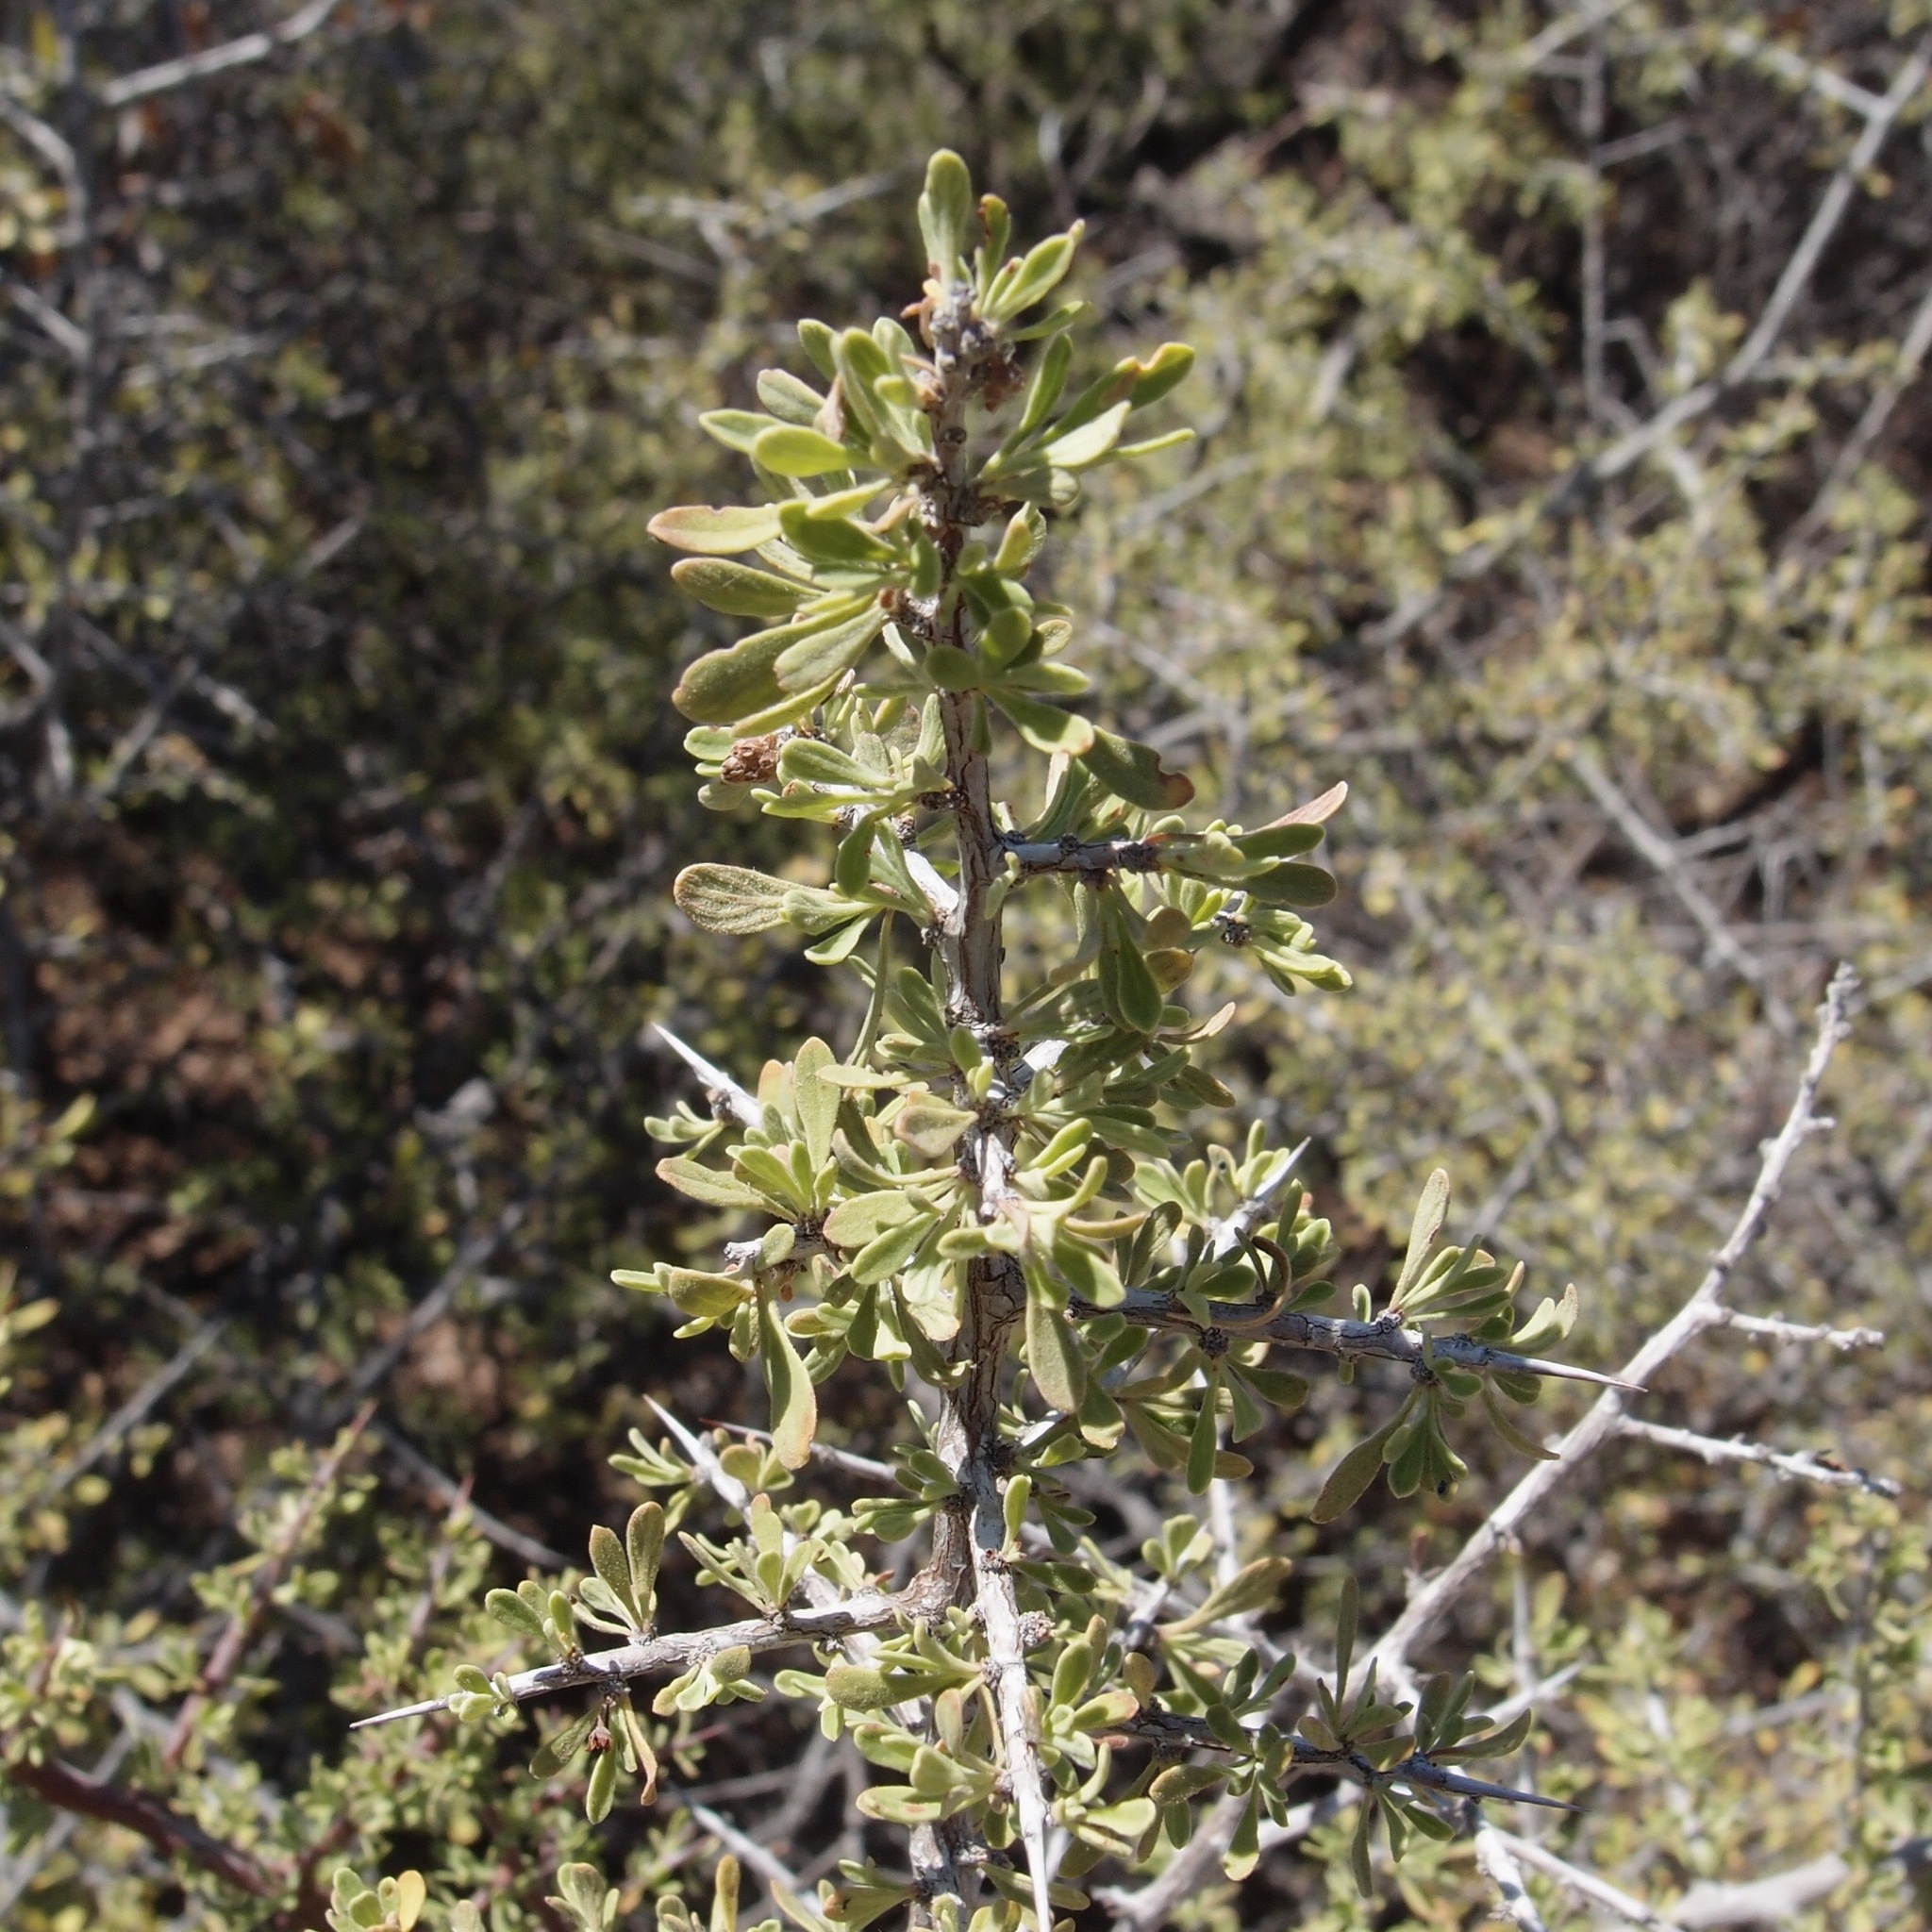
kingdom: Plantae
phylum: Tracheophyta
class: Magnoliopsida
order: Rosales
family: Rhamnaceae
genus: Condalia
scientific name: Condalia globosa
